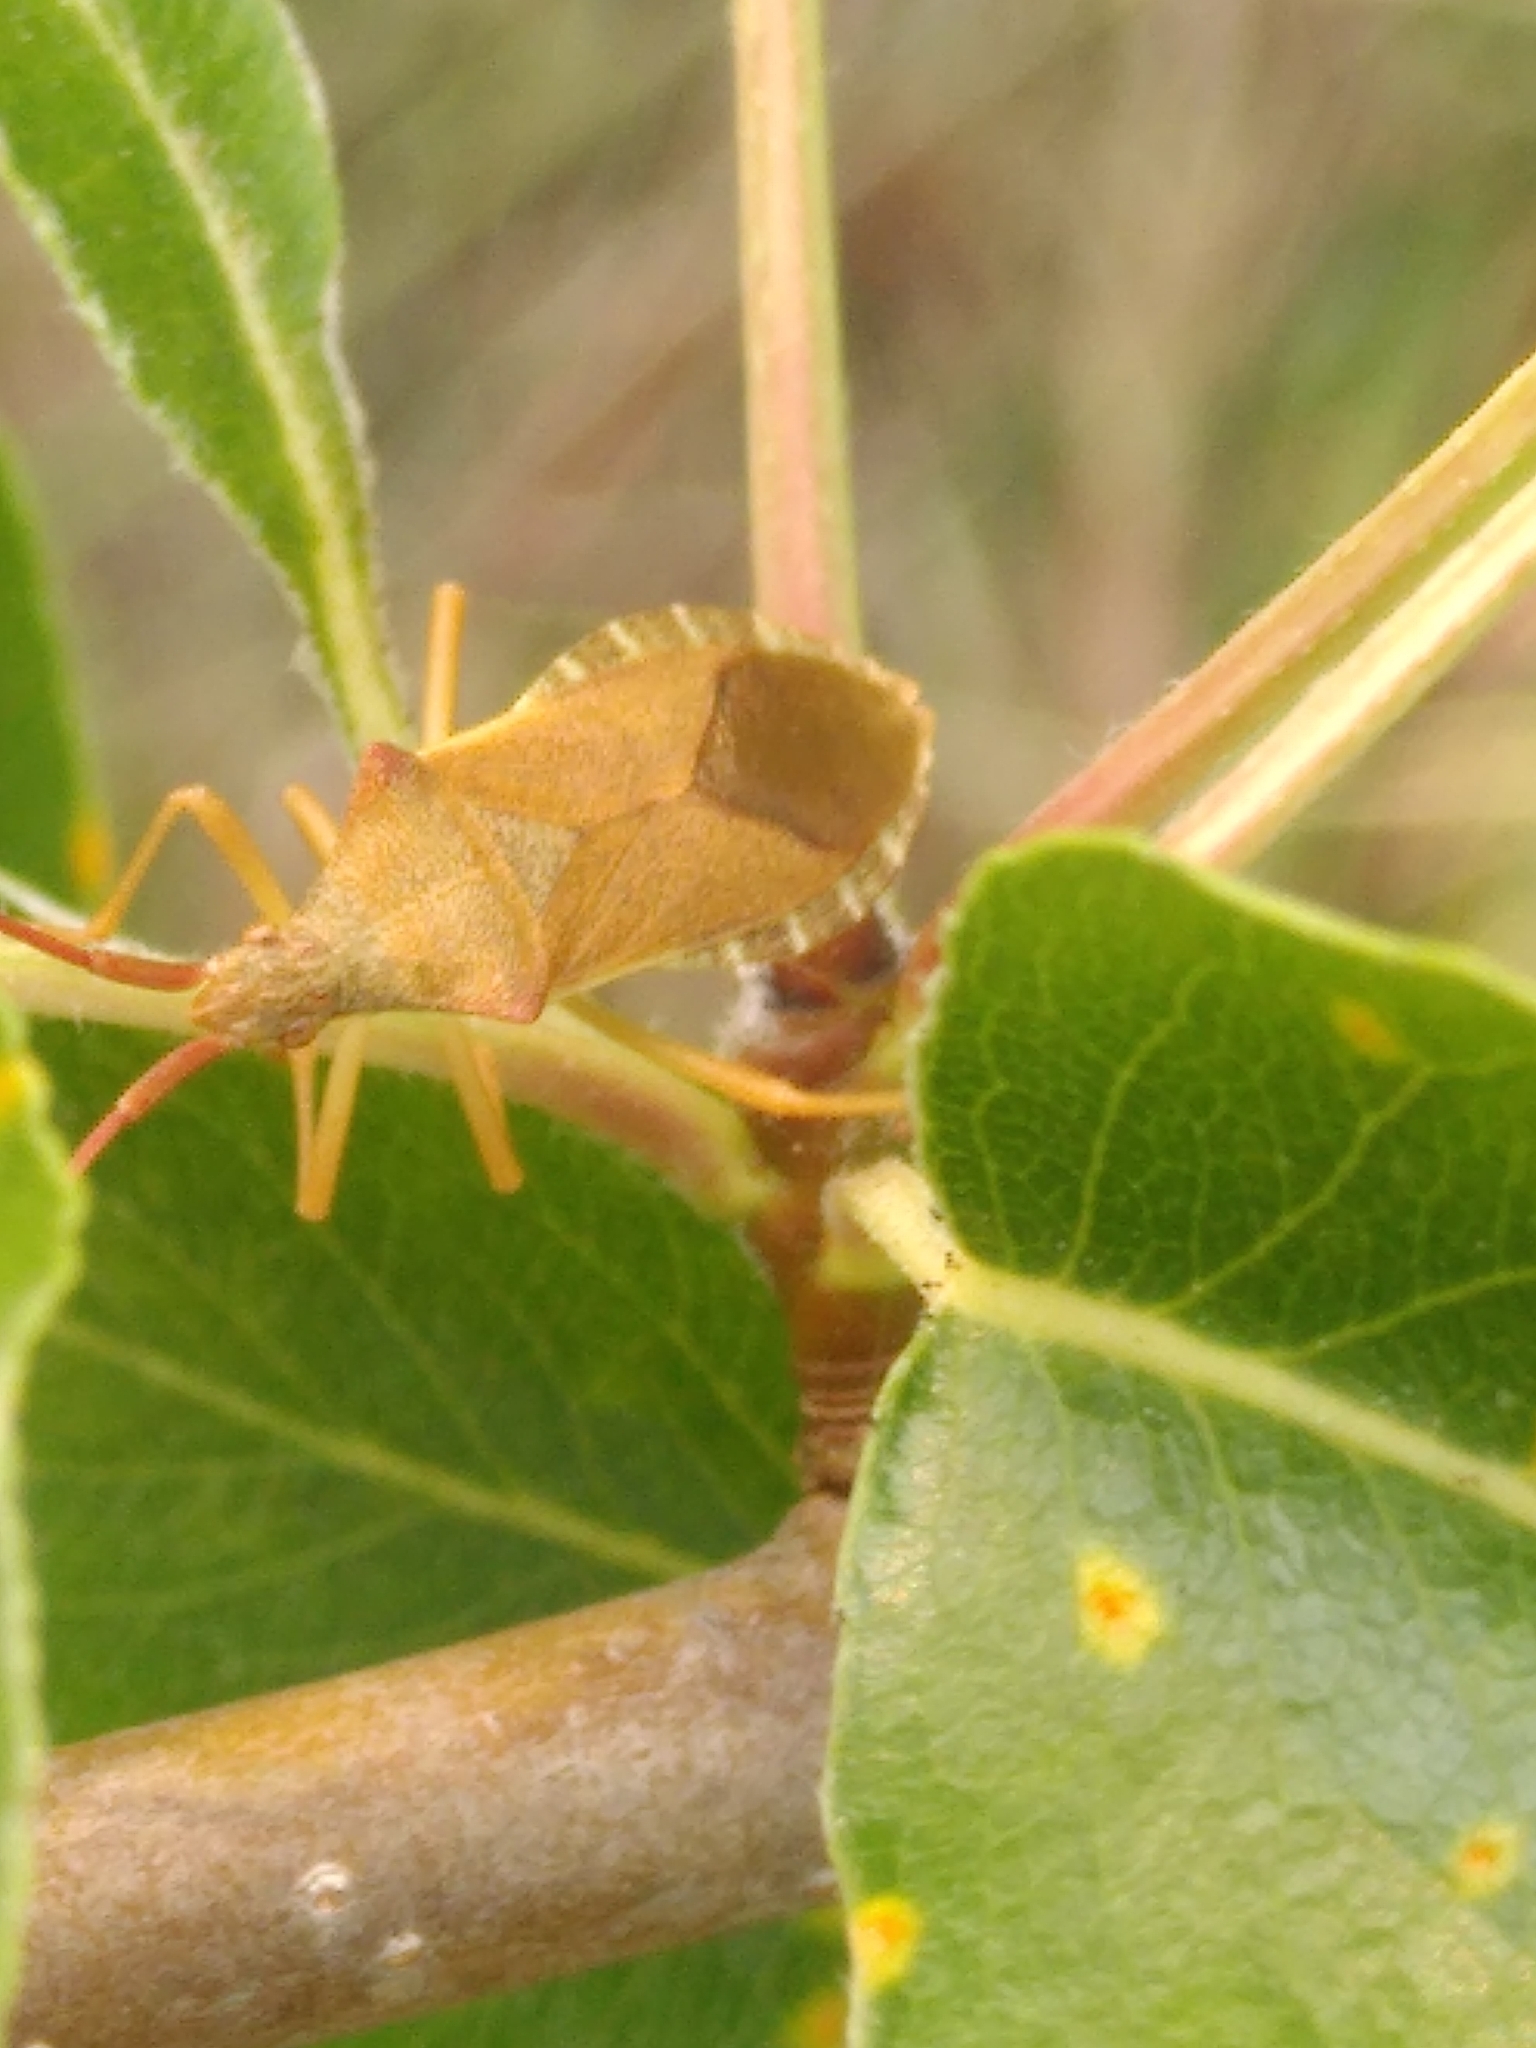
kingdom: Animalia
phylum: Arthropoda
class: Insecta
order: Hemiptera
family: Coreidae
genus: Gonocerus
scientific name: Gonocerus acuteangulatus
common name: Box bug
